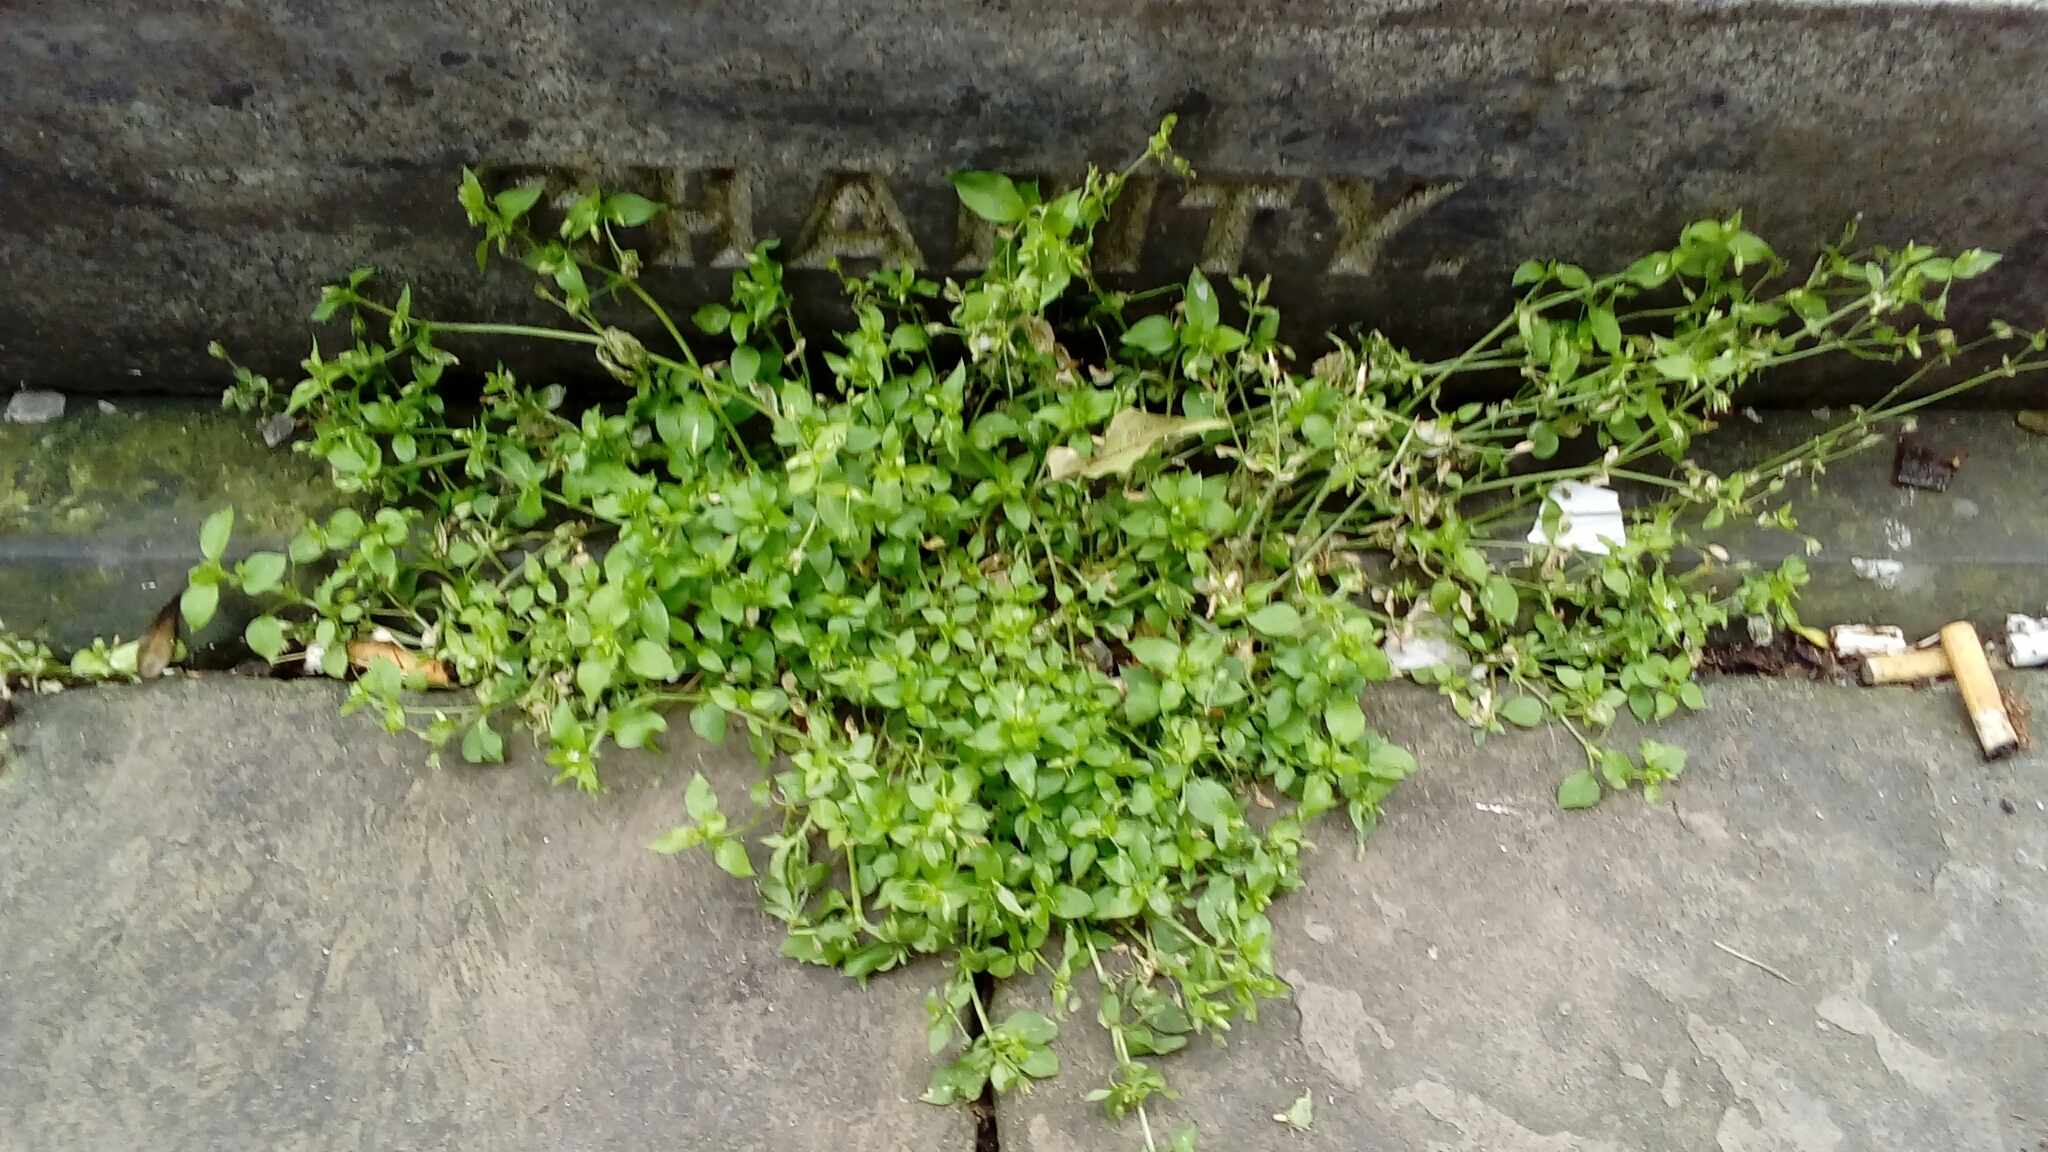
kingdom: Plantae
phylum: Tracheophyta
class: Magnoliopsida
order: Caryophyllales
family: Caryophyllaceae
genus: Stellaria
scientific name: Stellaria media
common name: Common chickweed
